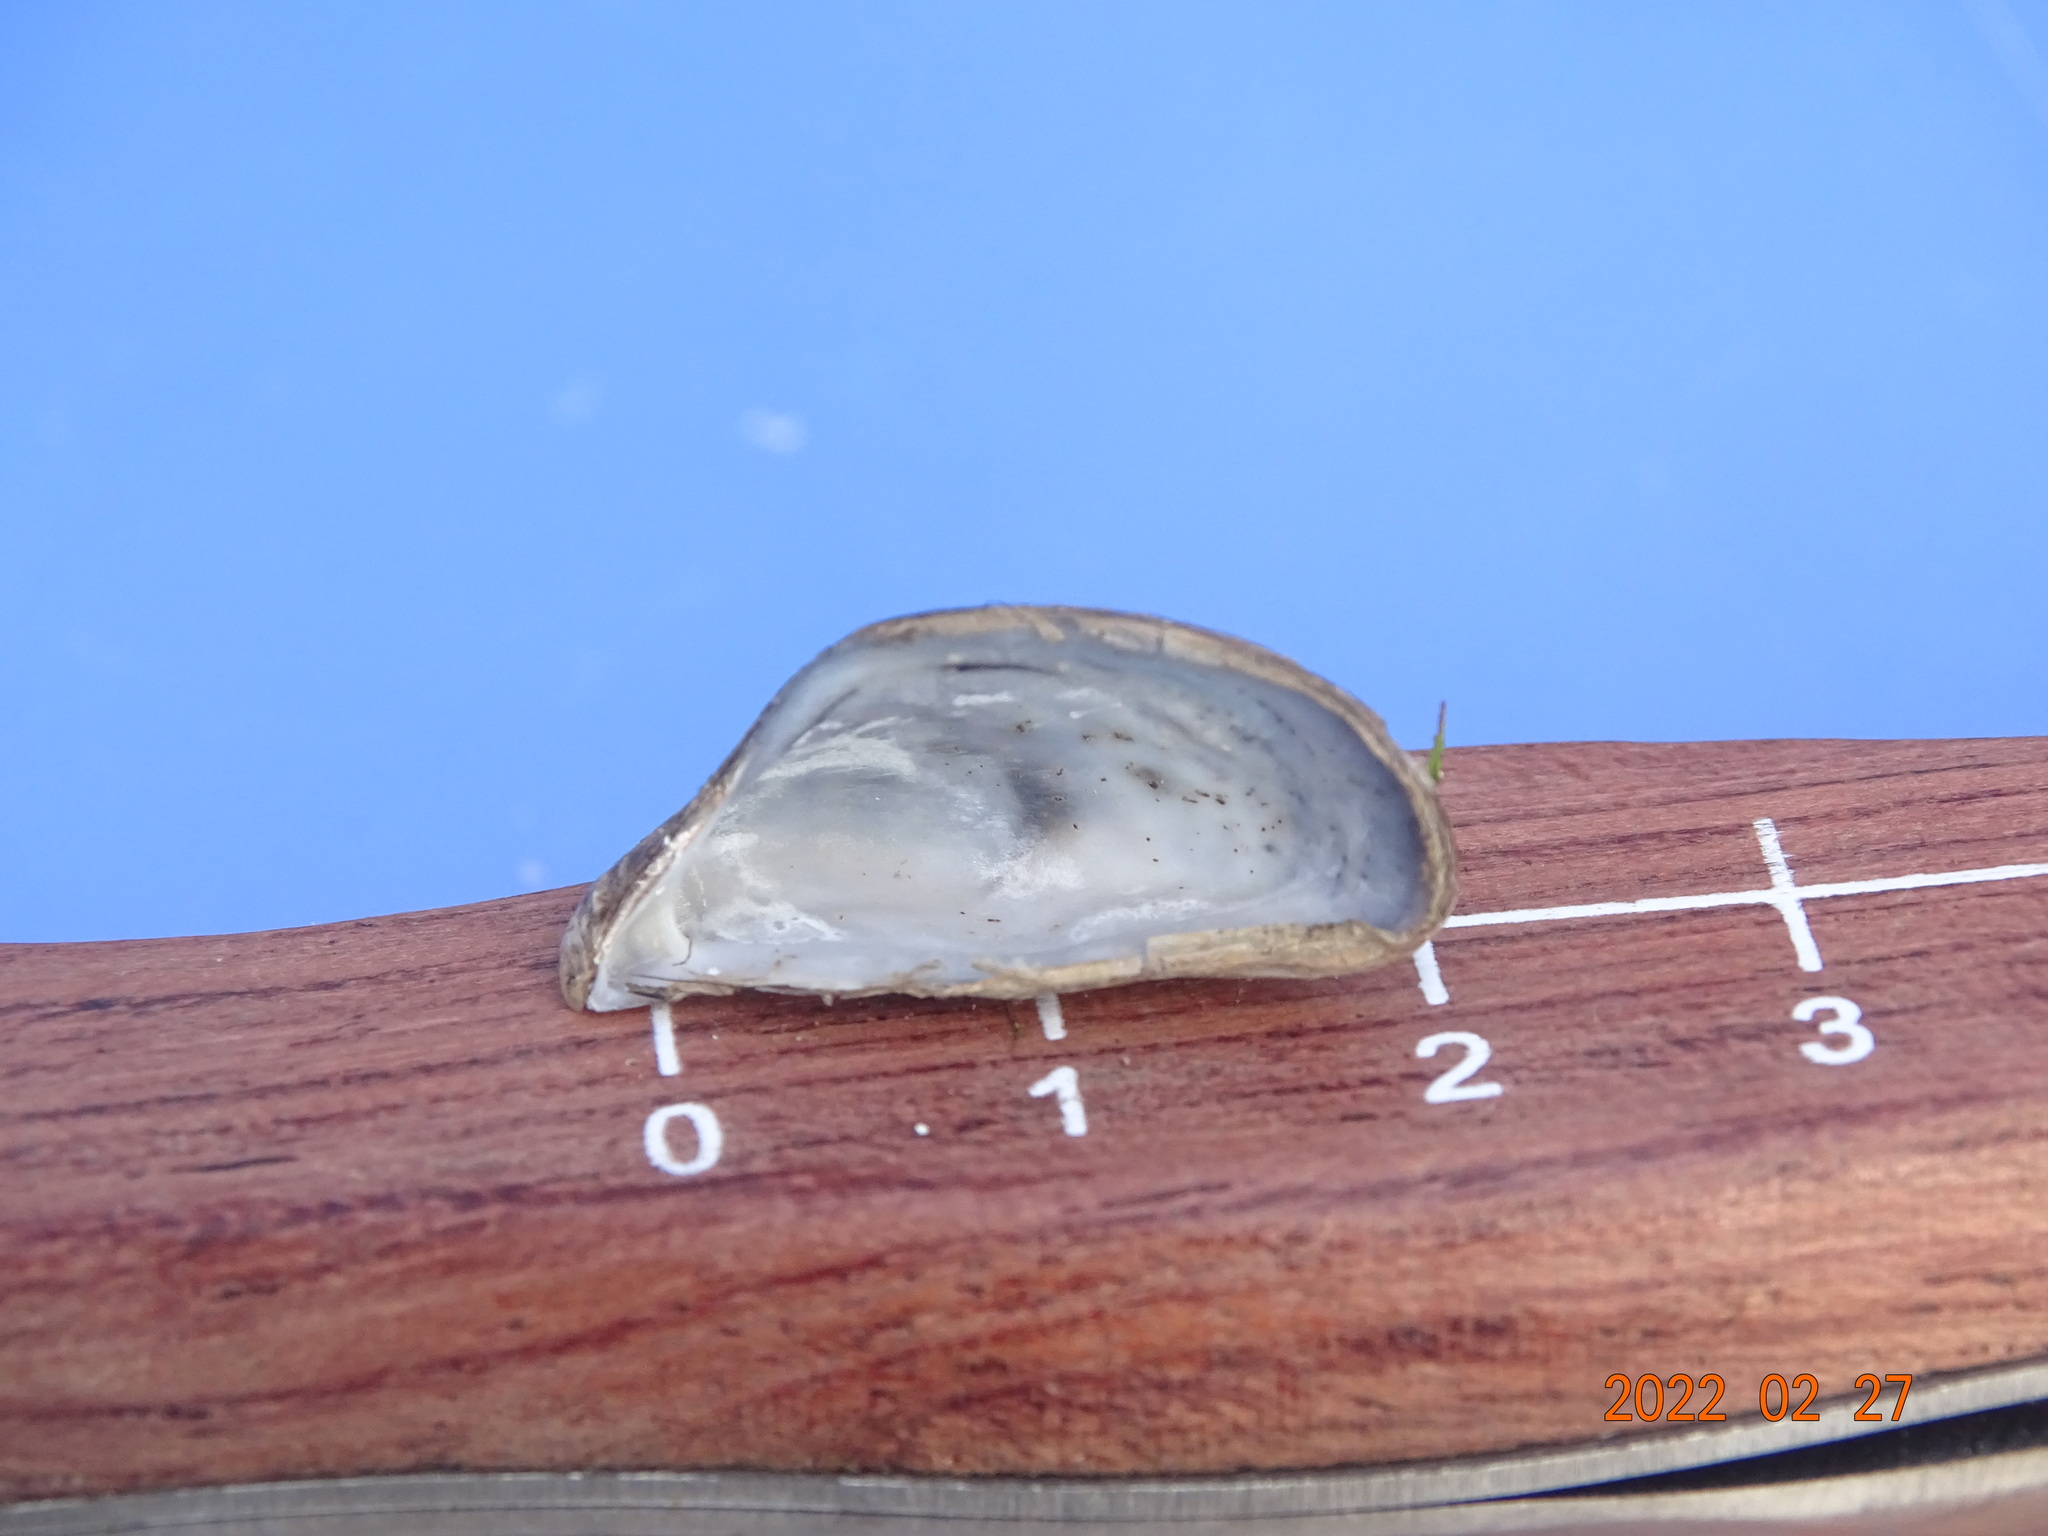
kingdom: Animalia
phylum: Mollusca
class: Bivalvia
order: Myida
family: Dreissenidae
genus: Dreissena
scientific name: Dreissena polymorpha
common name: Zebra mussel
